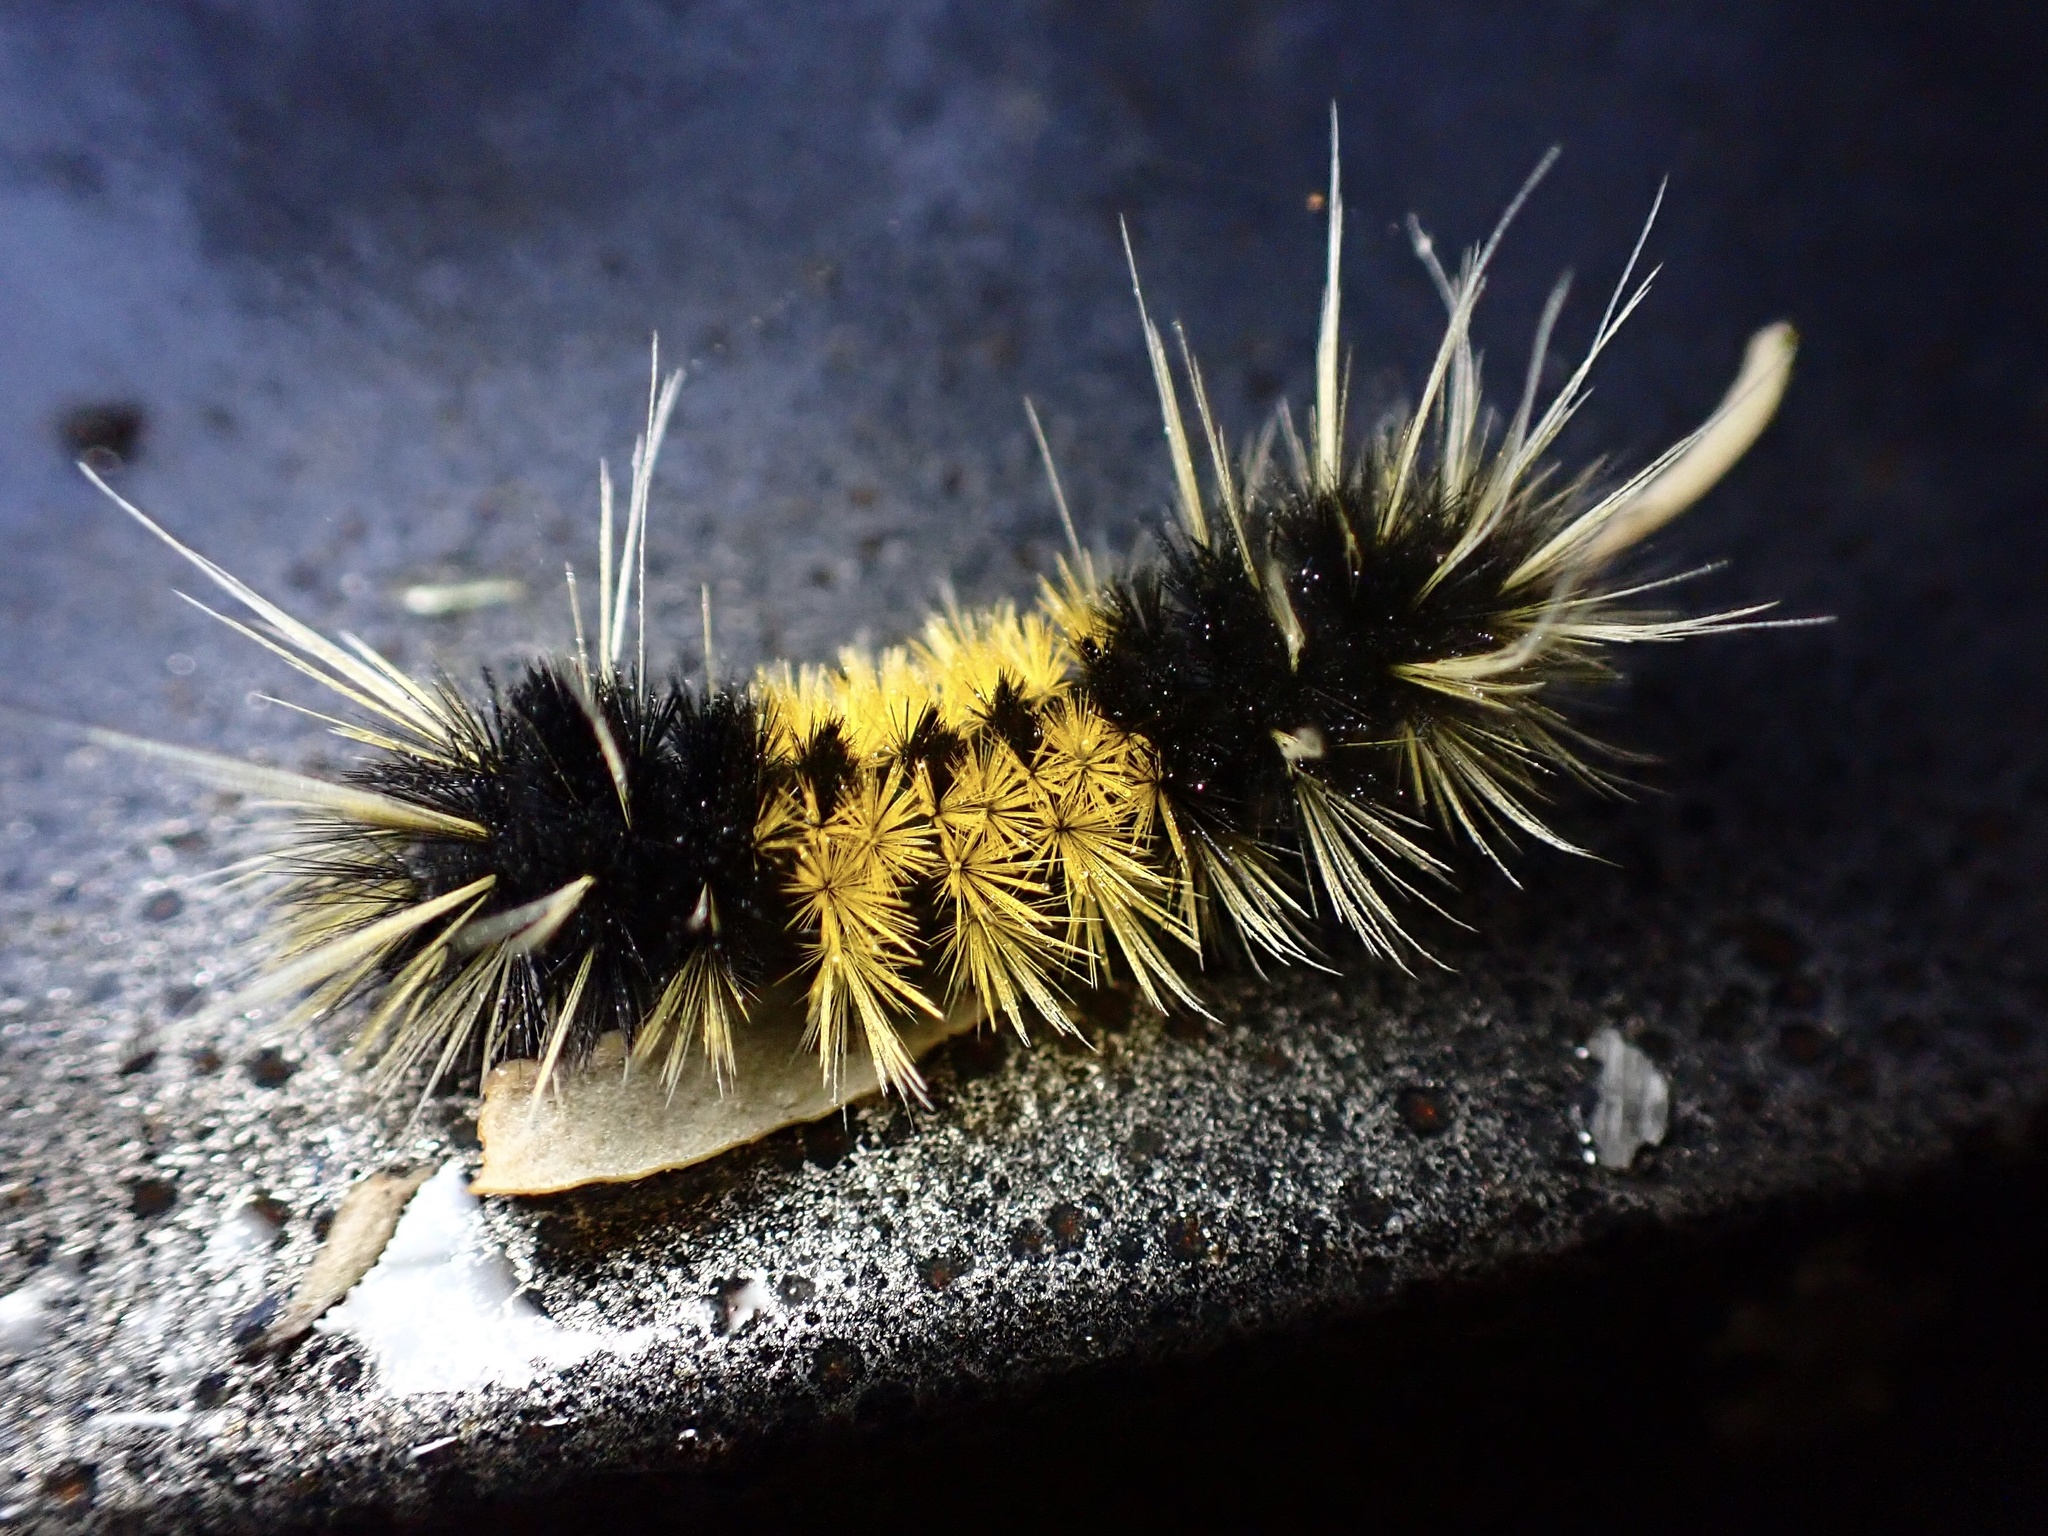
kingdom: Animalia
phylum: Arthropoda
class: Insecta
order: Lepidoptera
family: Erebidae
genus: Lophocampa
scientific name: Lophocampa maculata
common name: Spotted tussock moth
